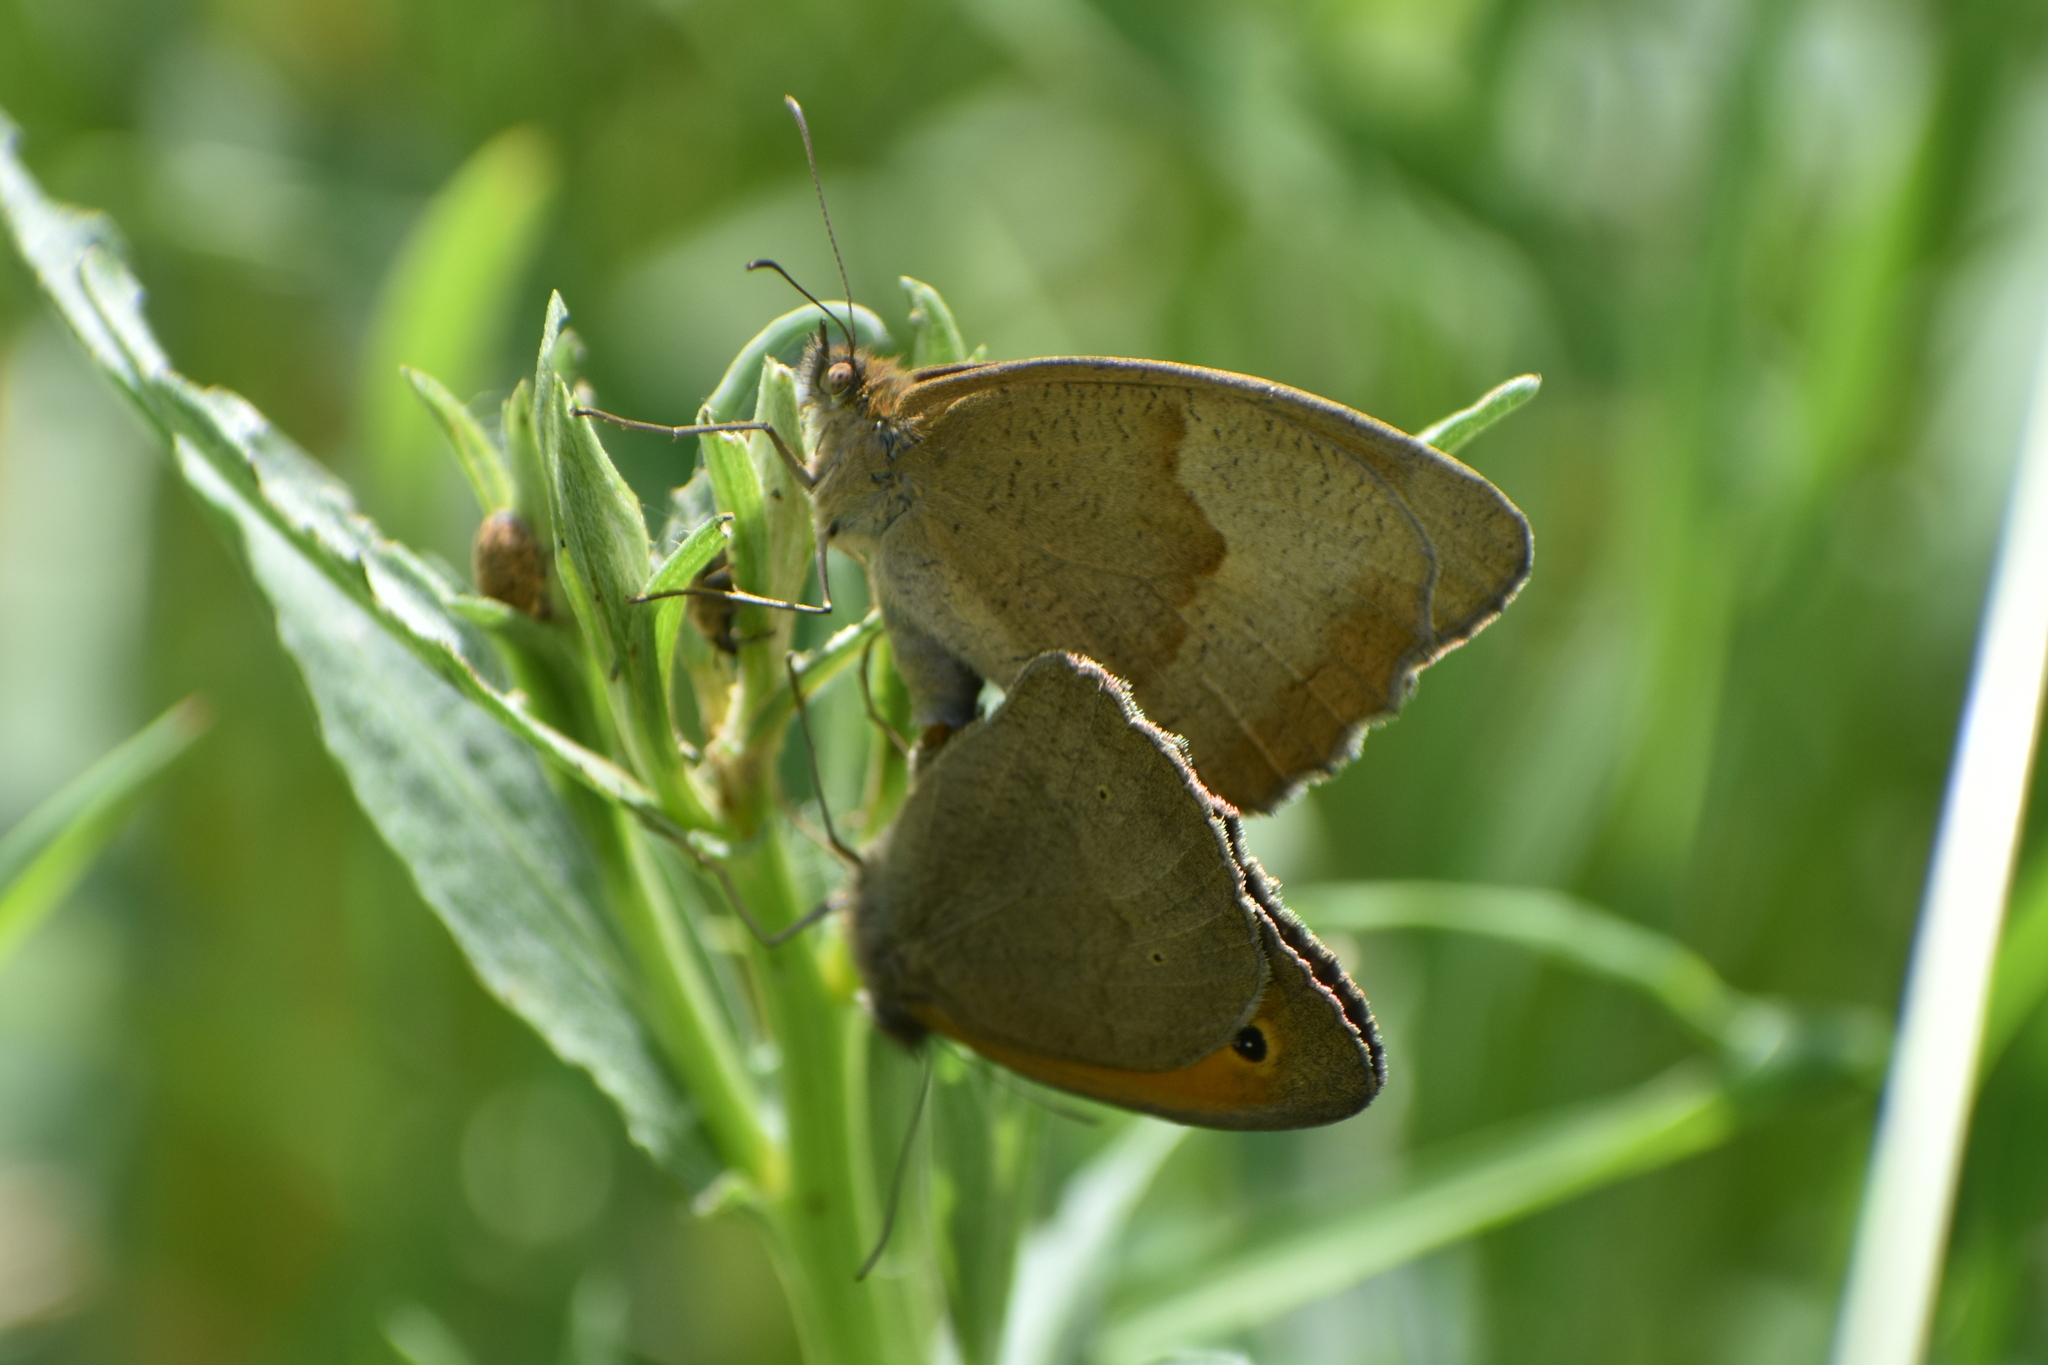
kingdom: Animalia
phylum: Arthropoda
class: Insecta
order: Lepidoptera
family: Nymphalidae
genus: Maniola
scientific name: Maniola jurtina
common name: Meadow brown
